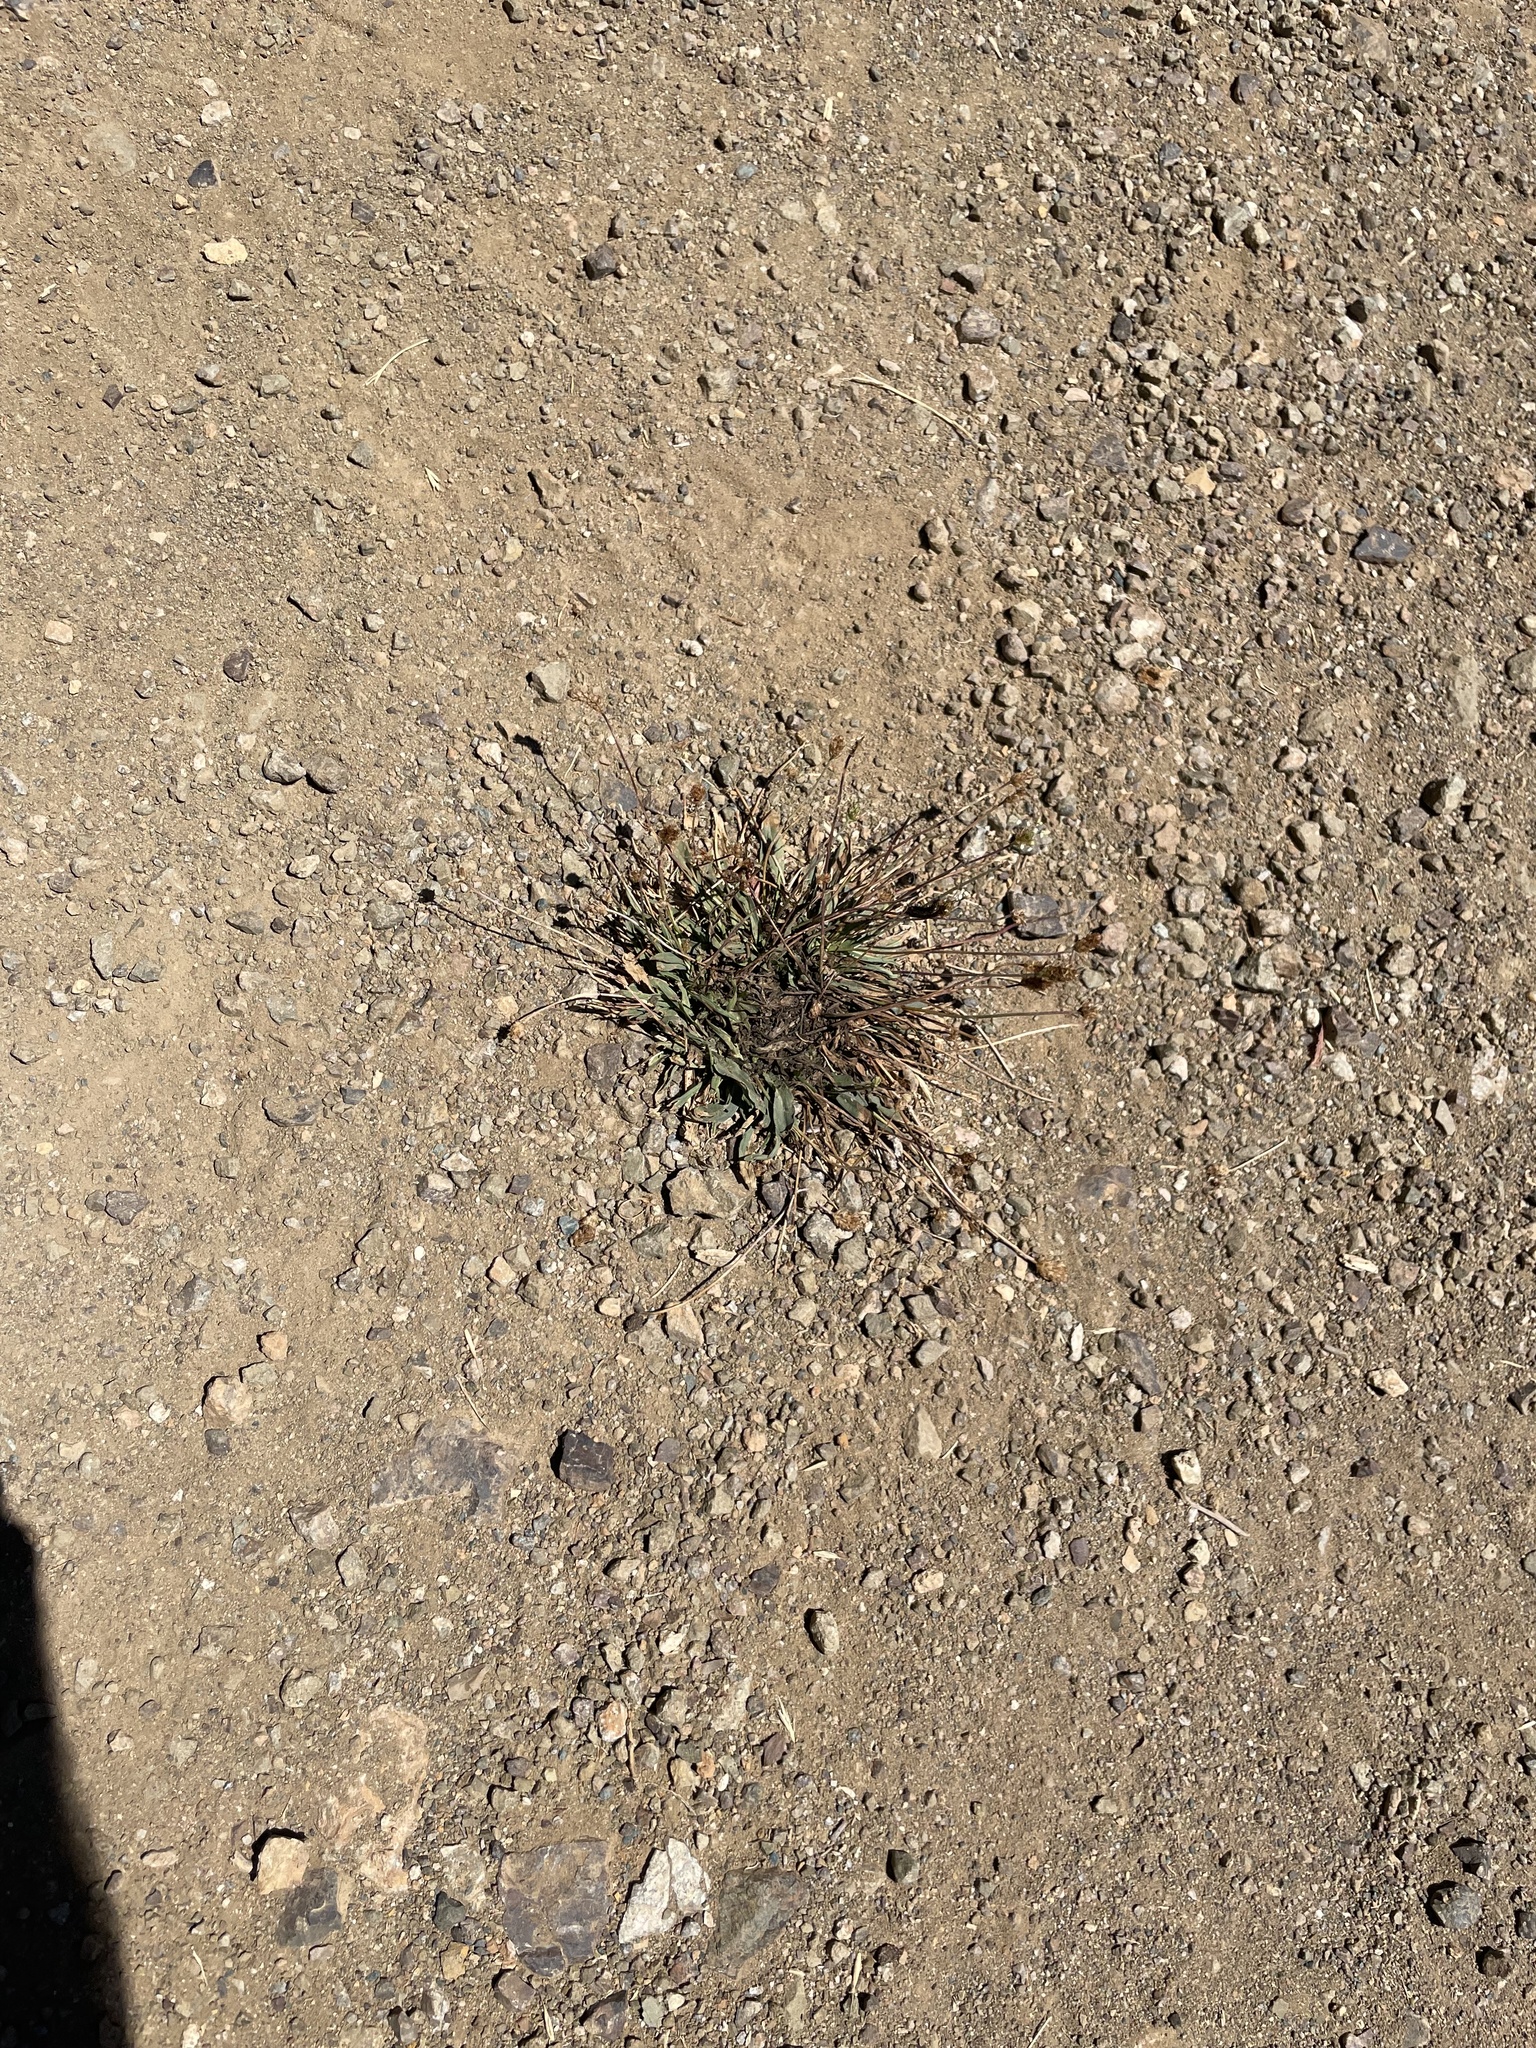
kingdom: Plantae
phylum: Tracheophyta
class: Magnoliopsida
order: Lamiales
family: Plantaginaceae
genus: Plantago
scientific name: Plantago lanceolata
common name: Ribwort plantain
